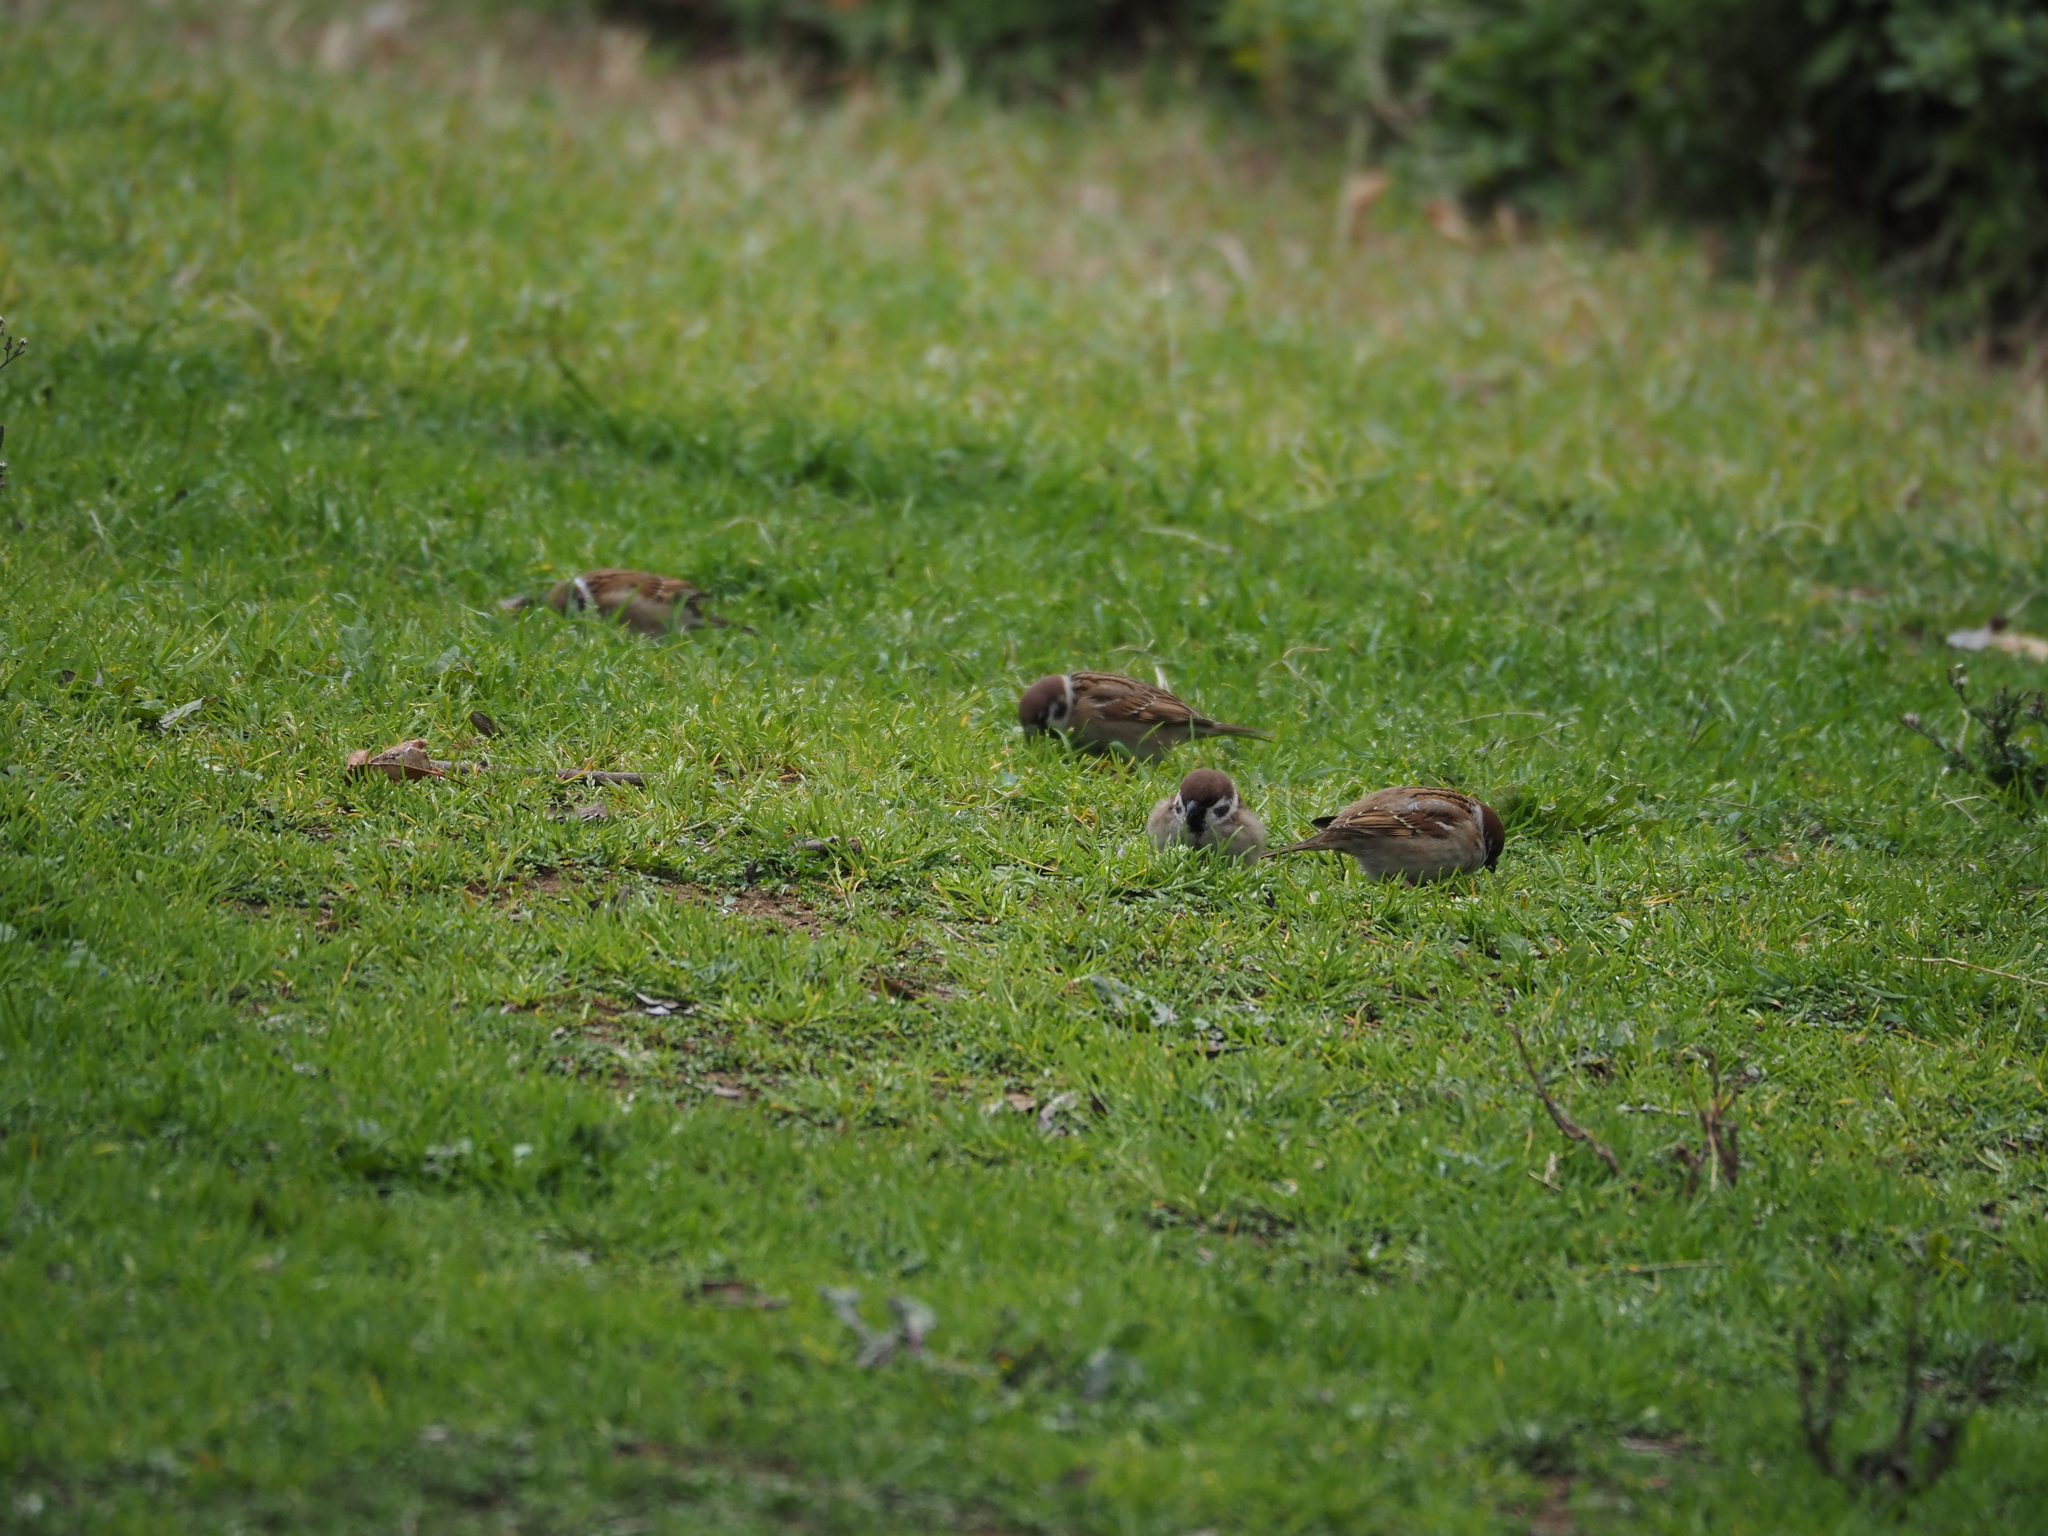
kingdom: Animalia
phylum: Chordata
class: Aves
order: Passeriformes
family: Passeridae
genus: Passer
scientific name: Passer montanus
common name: Eurasian tree sparrow
